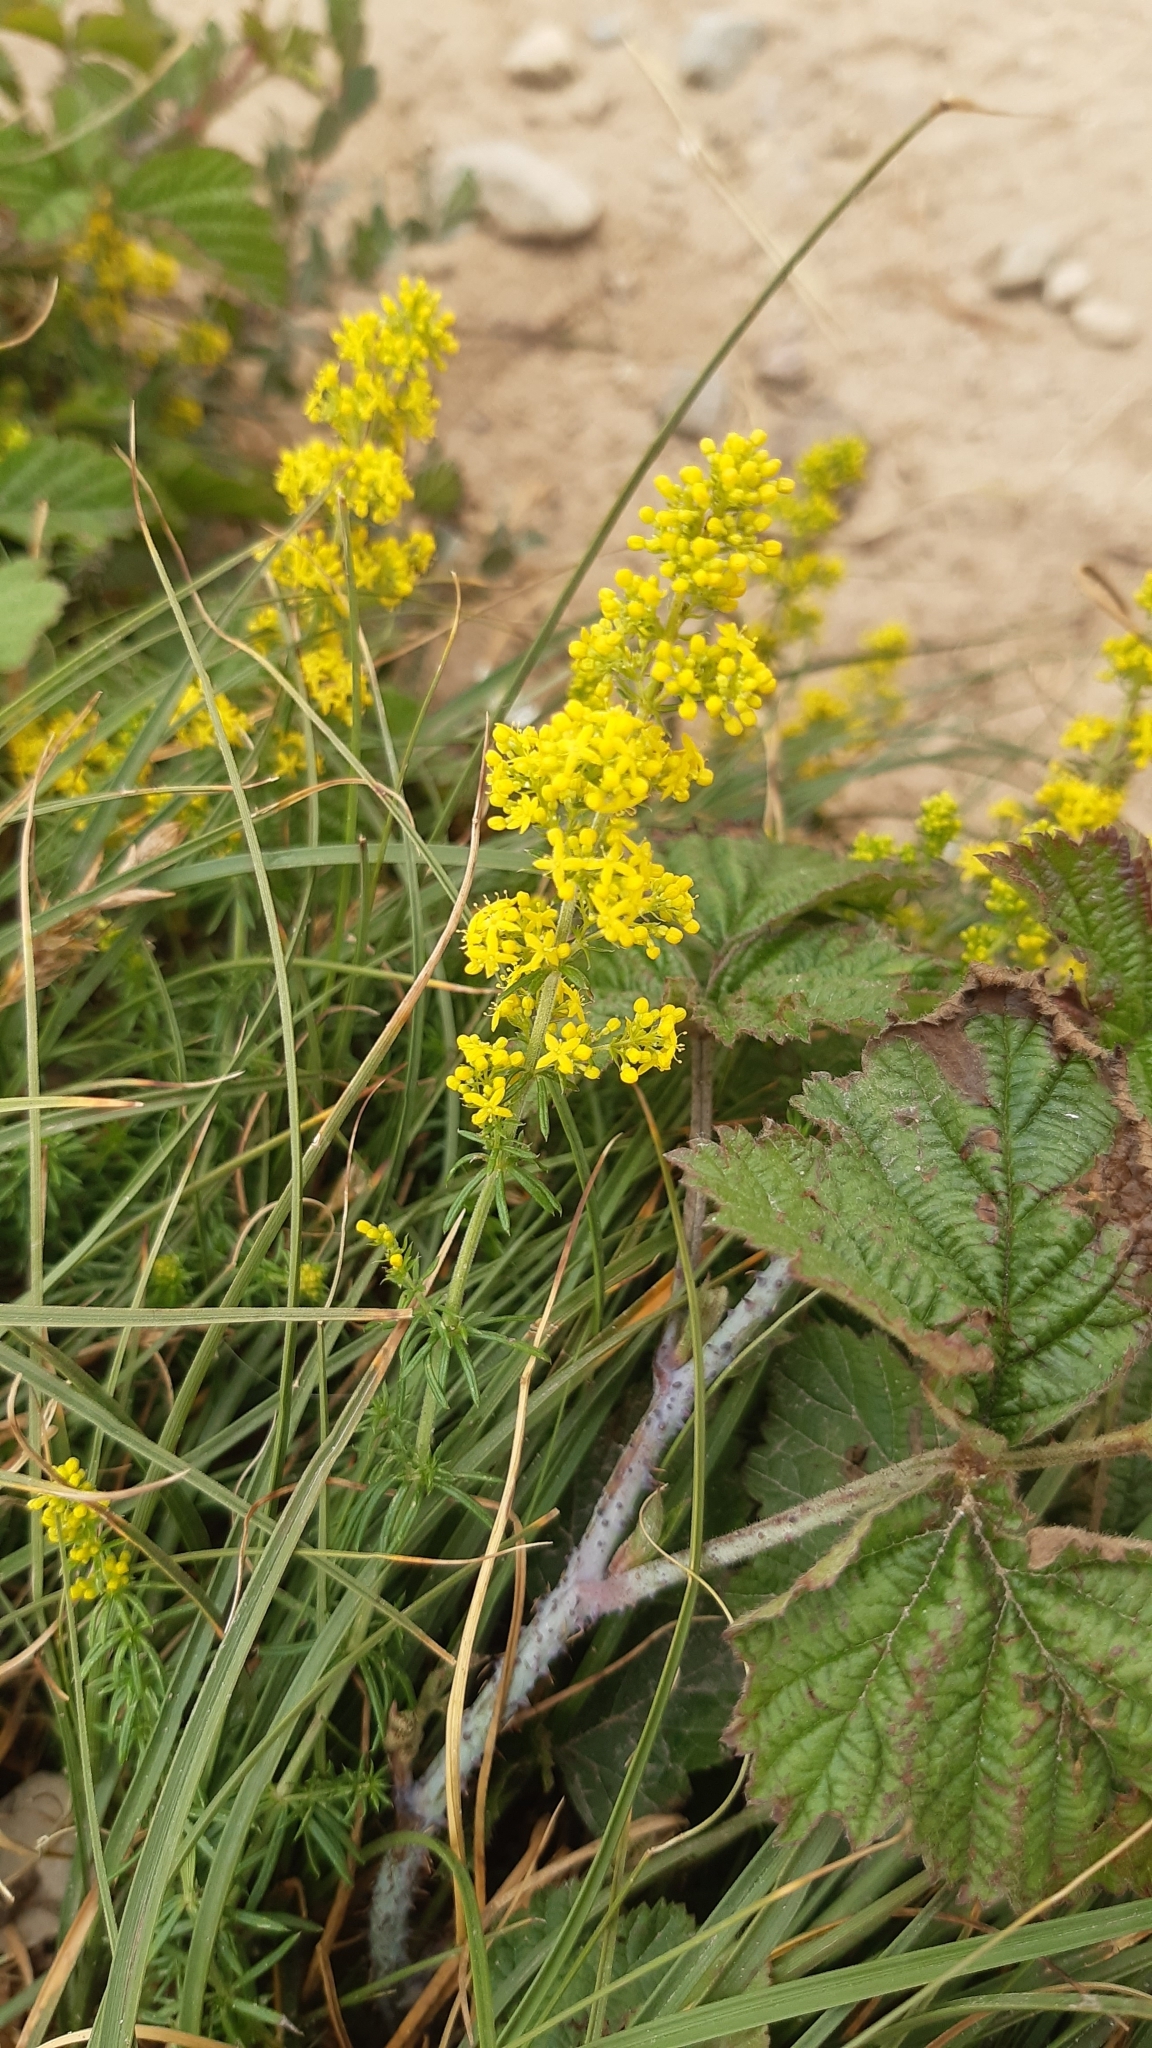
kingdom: Plantae
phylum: Tracheophyta
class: Magnoliopsida
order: Gentianales
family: Rubiaceae
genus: Galium
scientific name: Galium verum
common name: Lady's bedstraw
